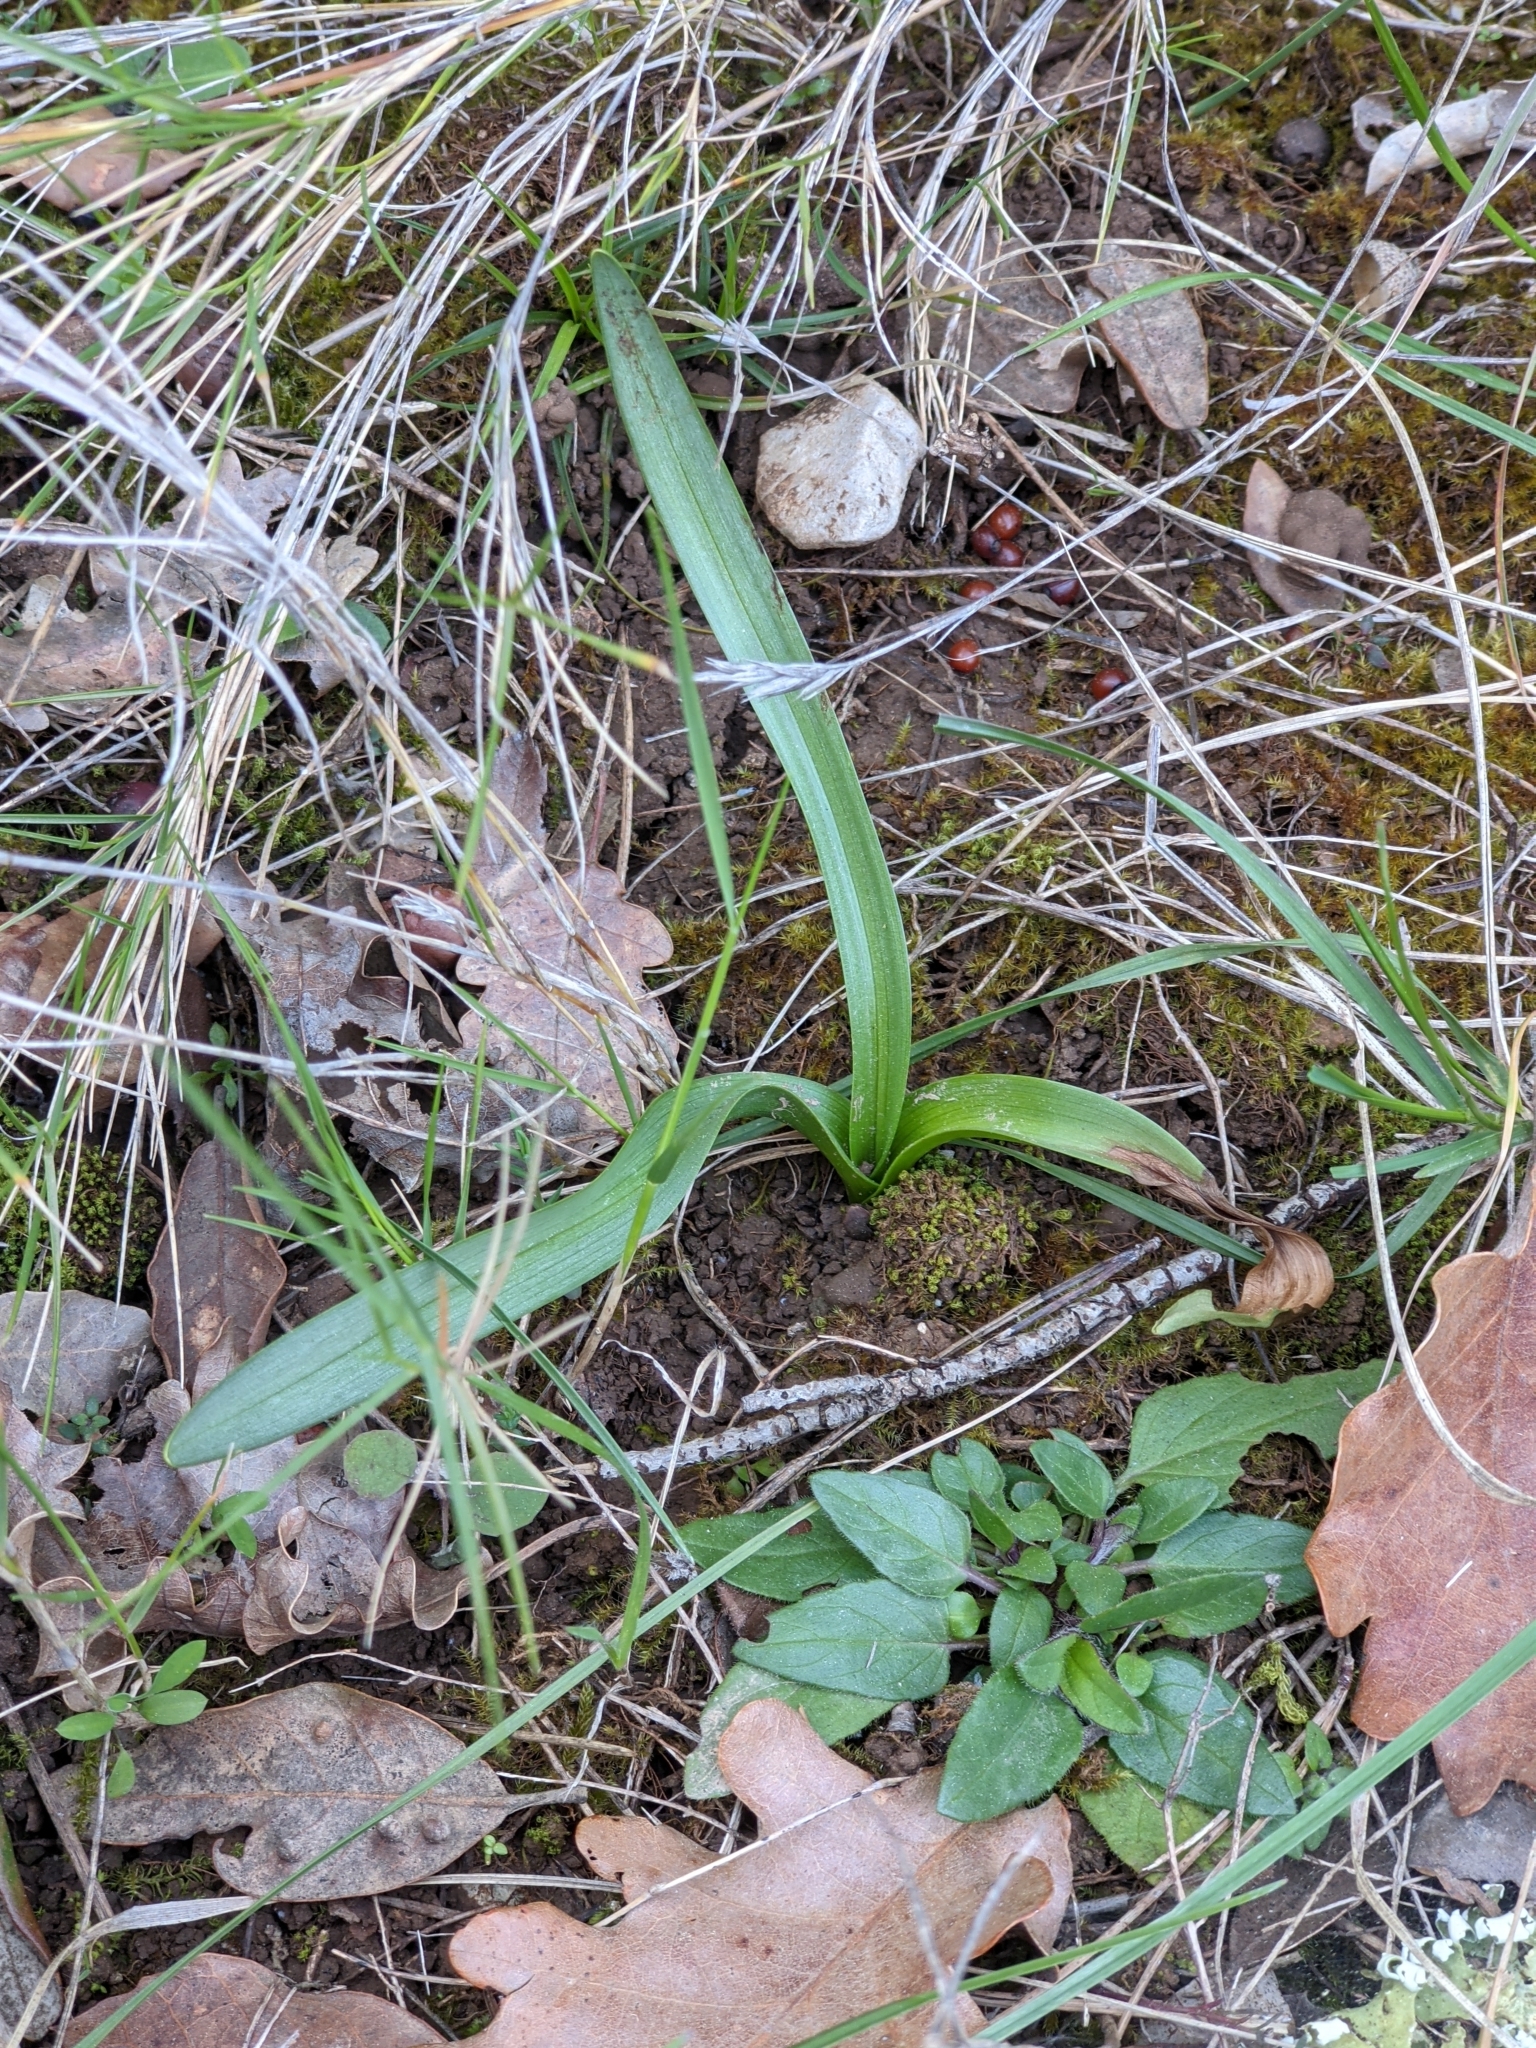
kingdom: Plantae
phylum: Tracheophyta
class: Liliopsida
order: Liliales
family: Colchicaceae
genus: Colchicum
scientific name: Colchicum longifolium
